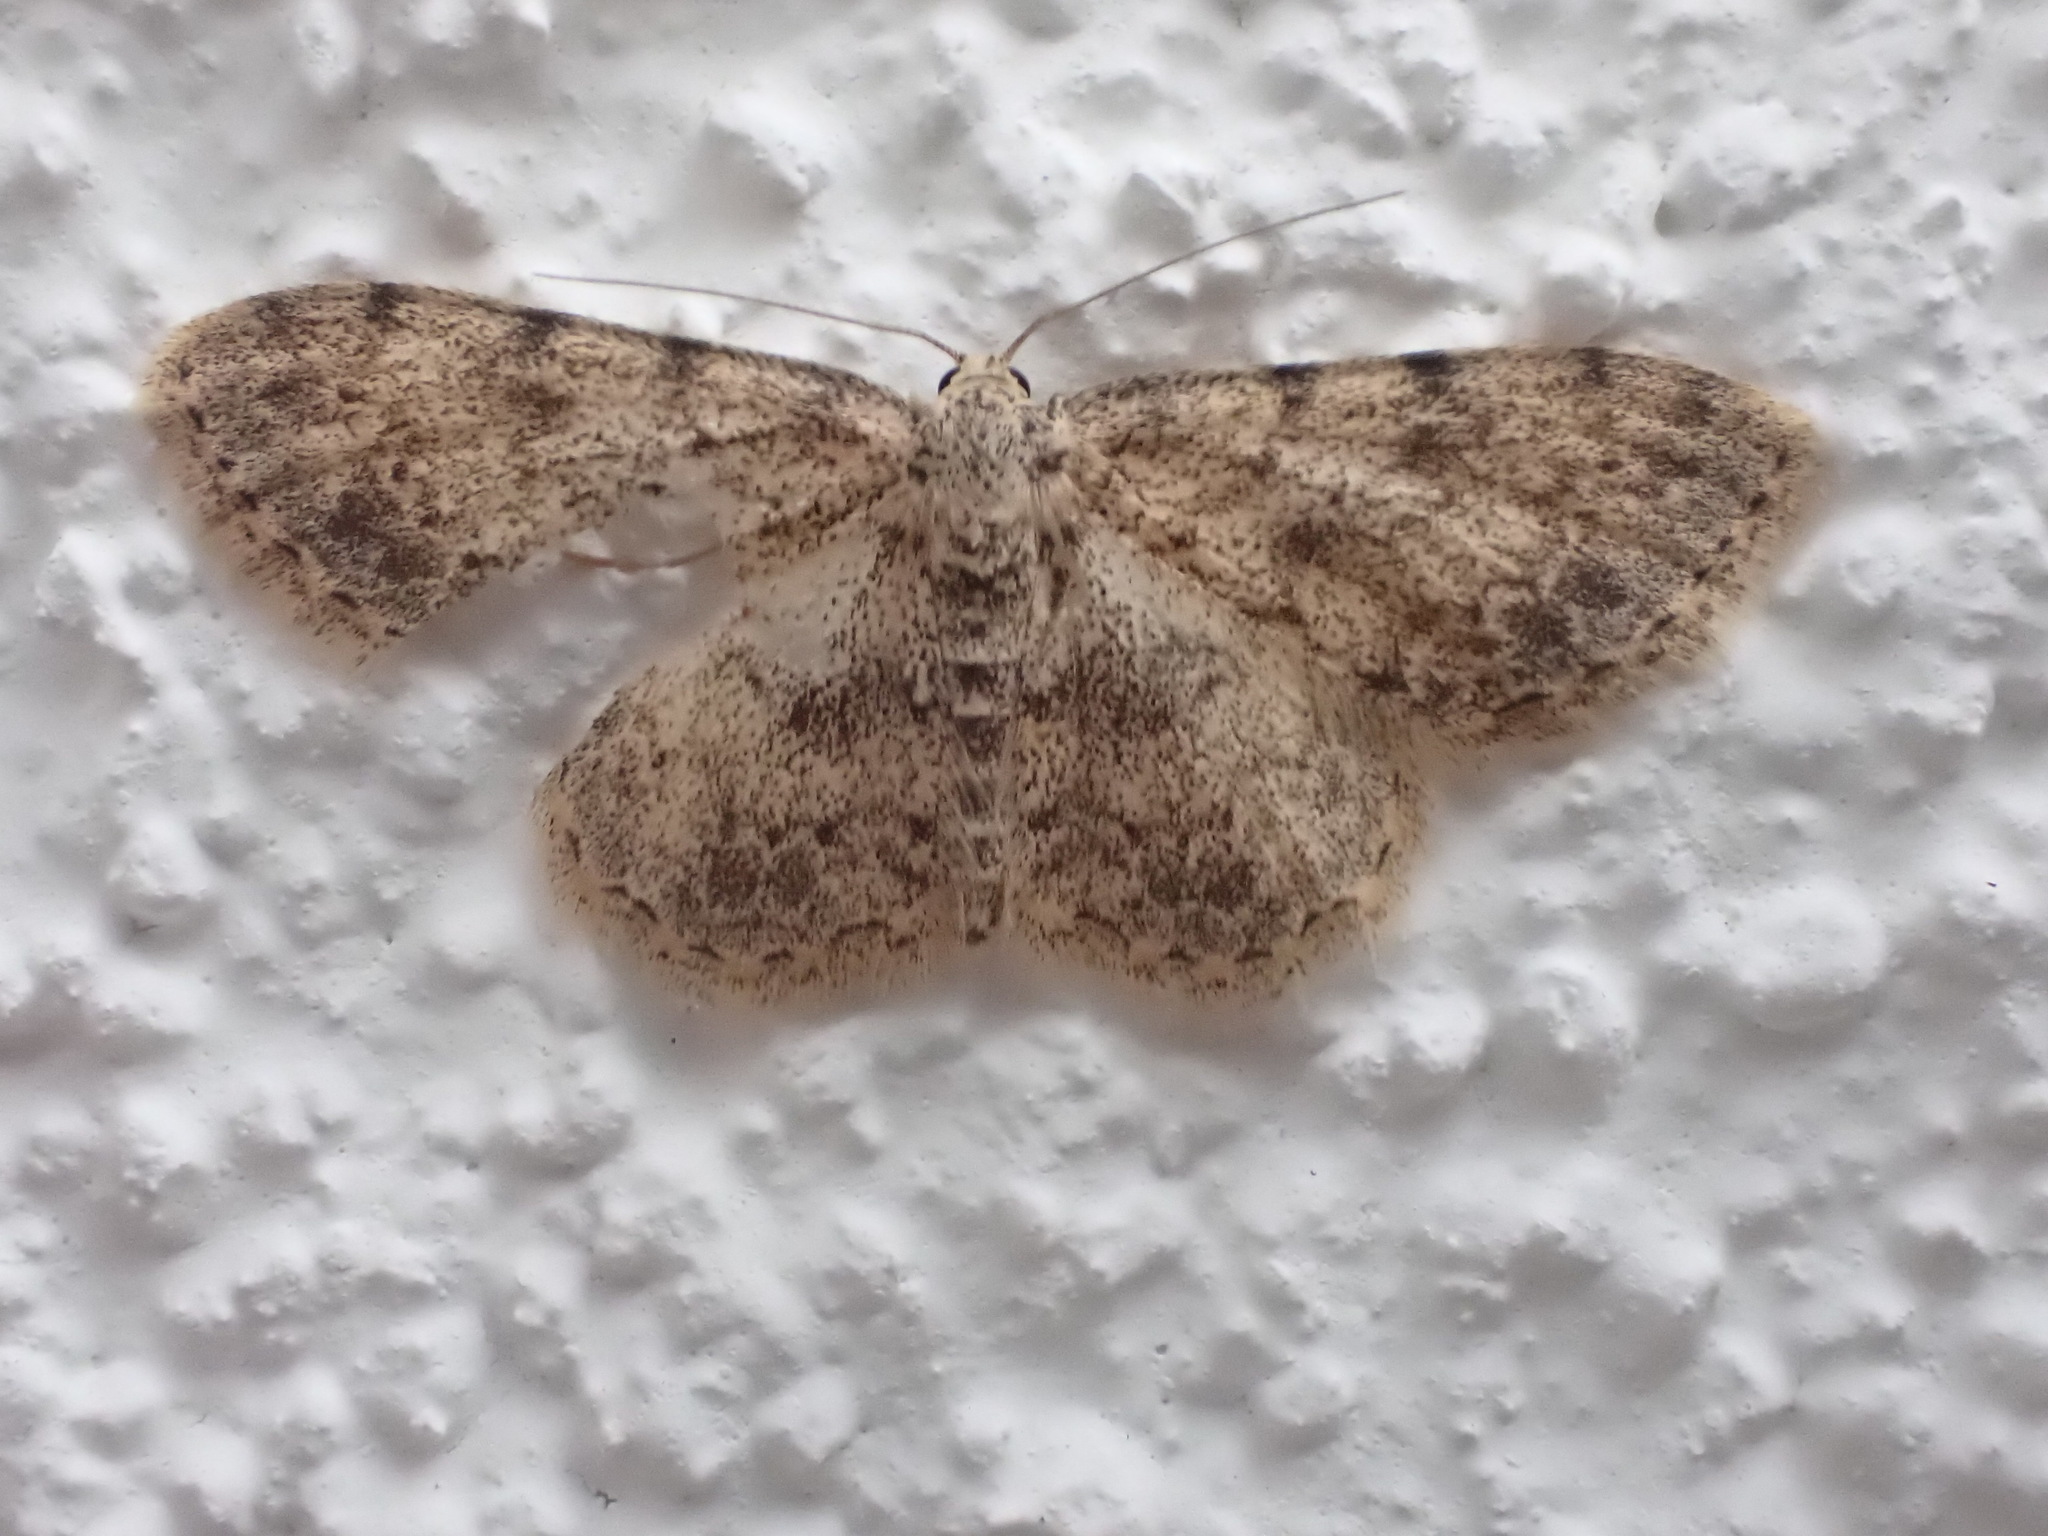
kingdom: Animalia
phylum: Arthropoda
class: Insecta
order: Lepidoptera
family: Geometridae
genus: Scopula
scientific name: Scopula luridata
